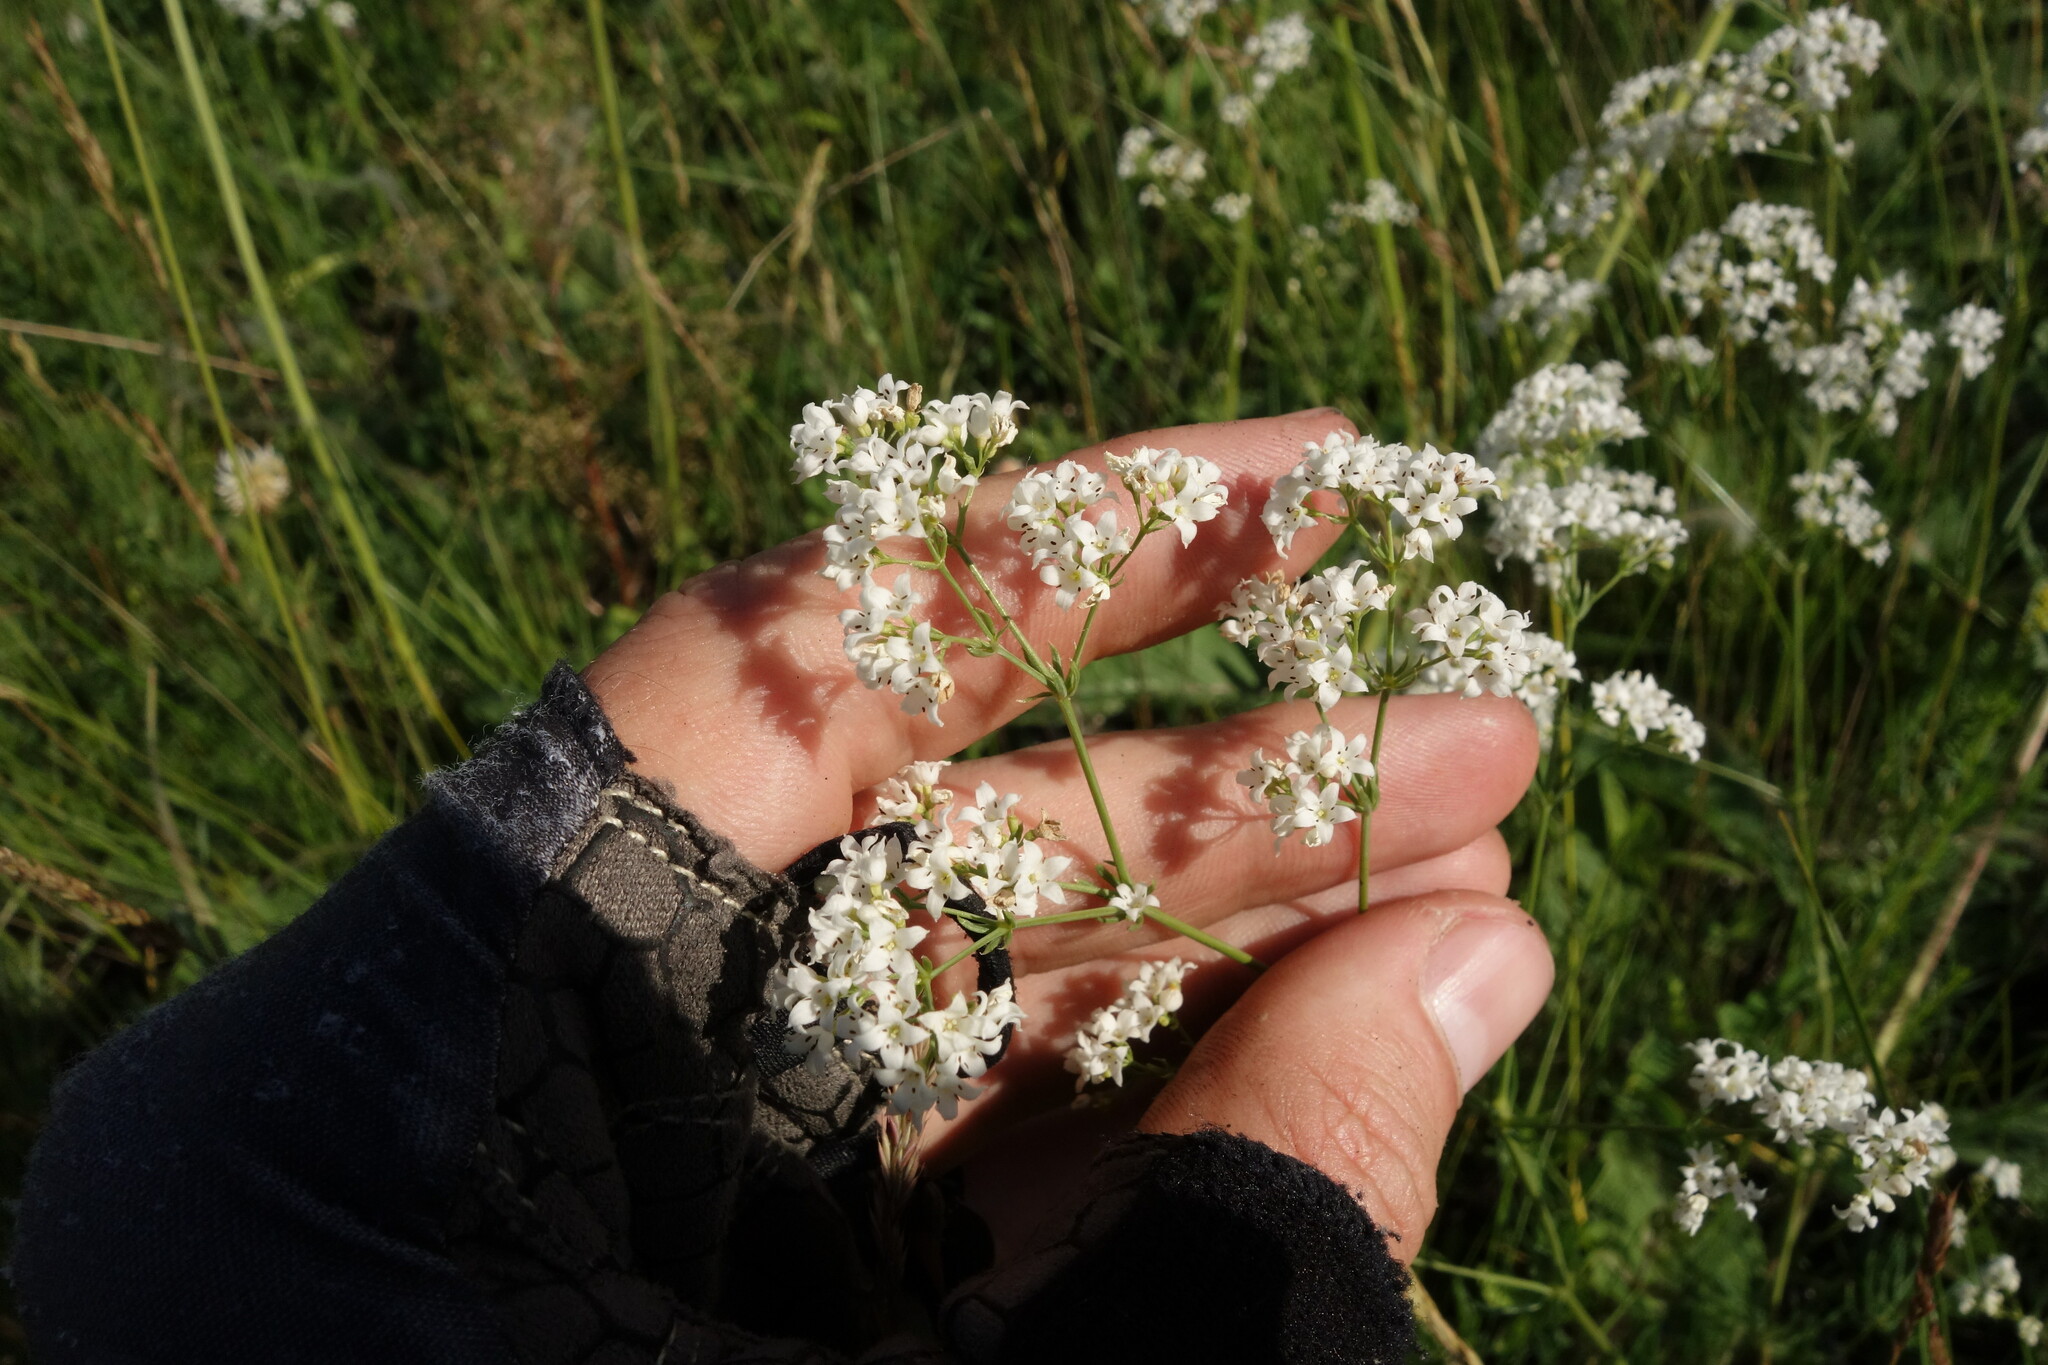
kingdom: Plantae
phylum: Tracheophyta
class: Magnoliopsida
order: Gentianales
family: Rubiaceae
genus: Galium
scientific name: Galium octonarium
